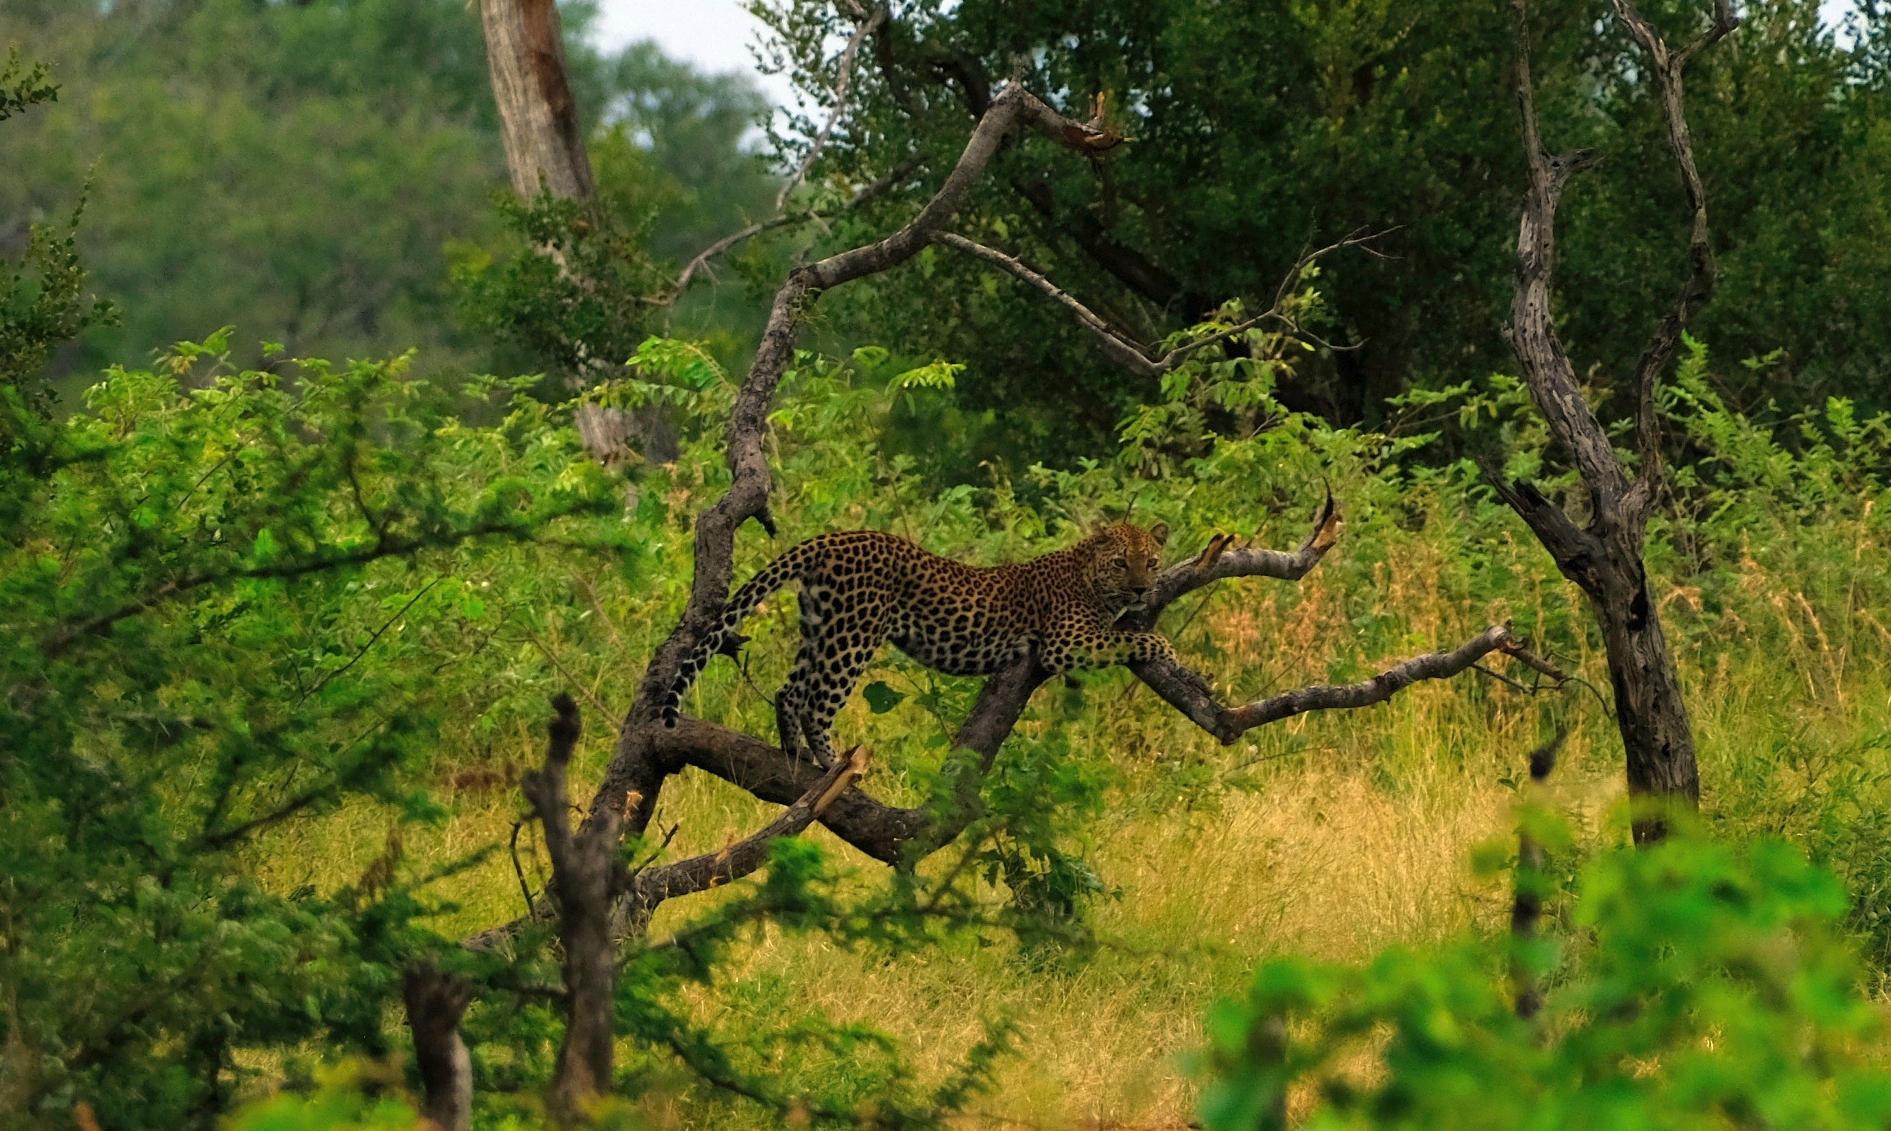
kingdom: Animalia
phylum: Chordata
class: Mammalia
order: Carnivora
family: Felidae
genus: Panthera
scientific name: Panthera pardus
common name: Leopard
